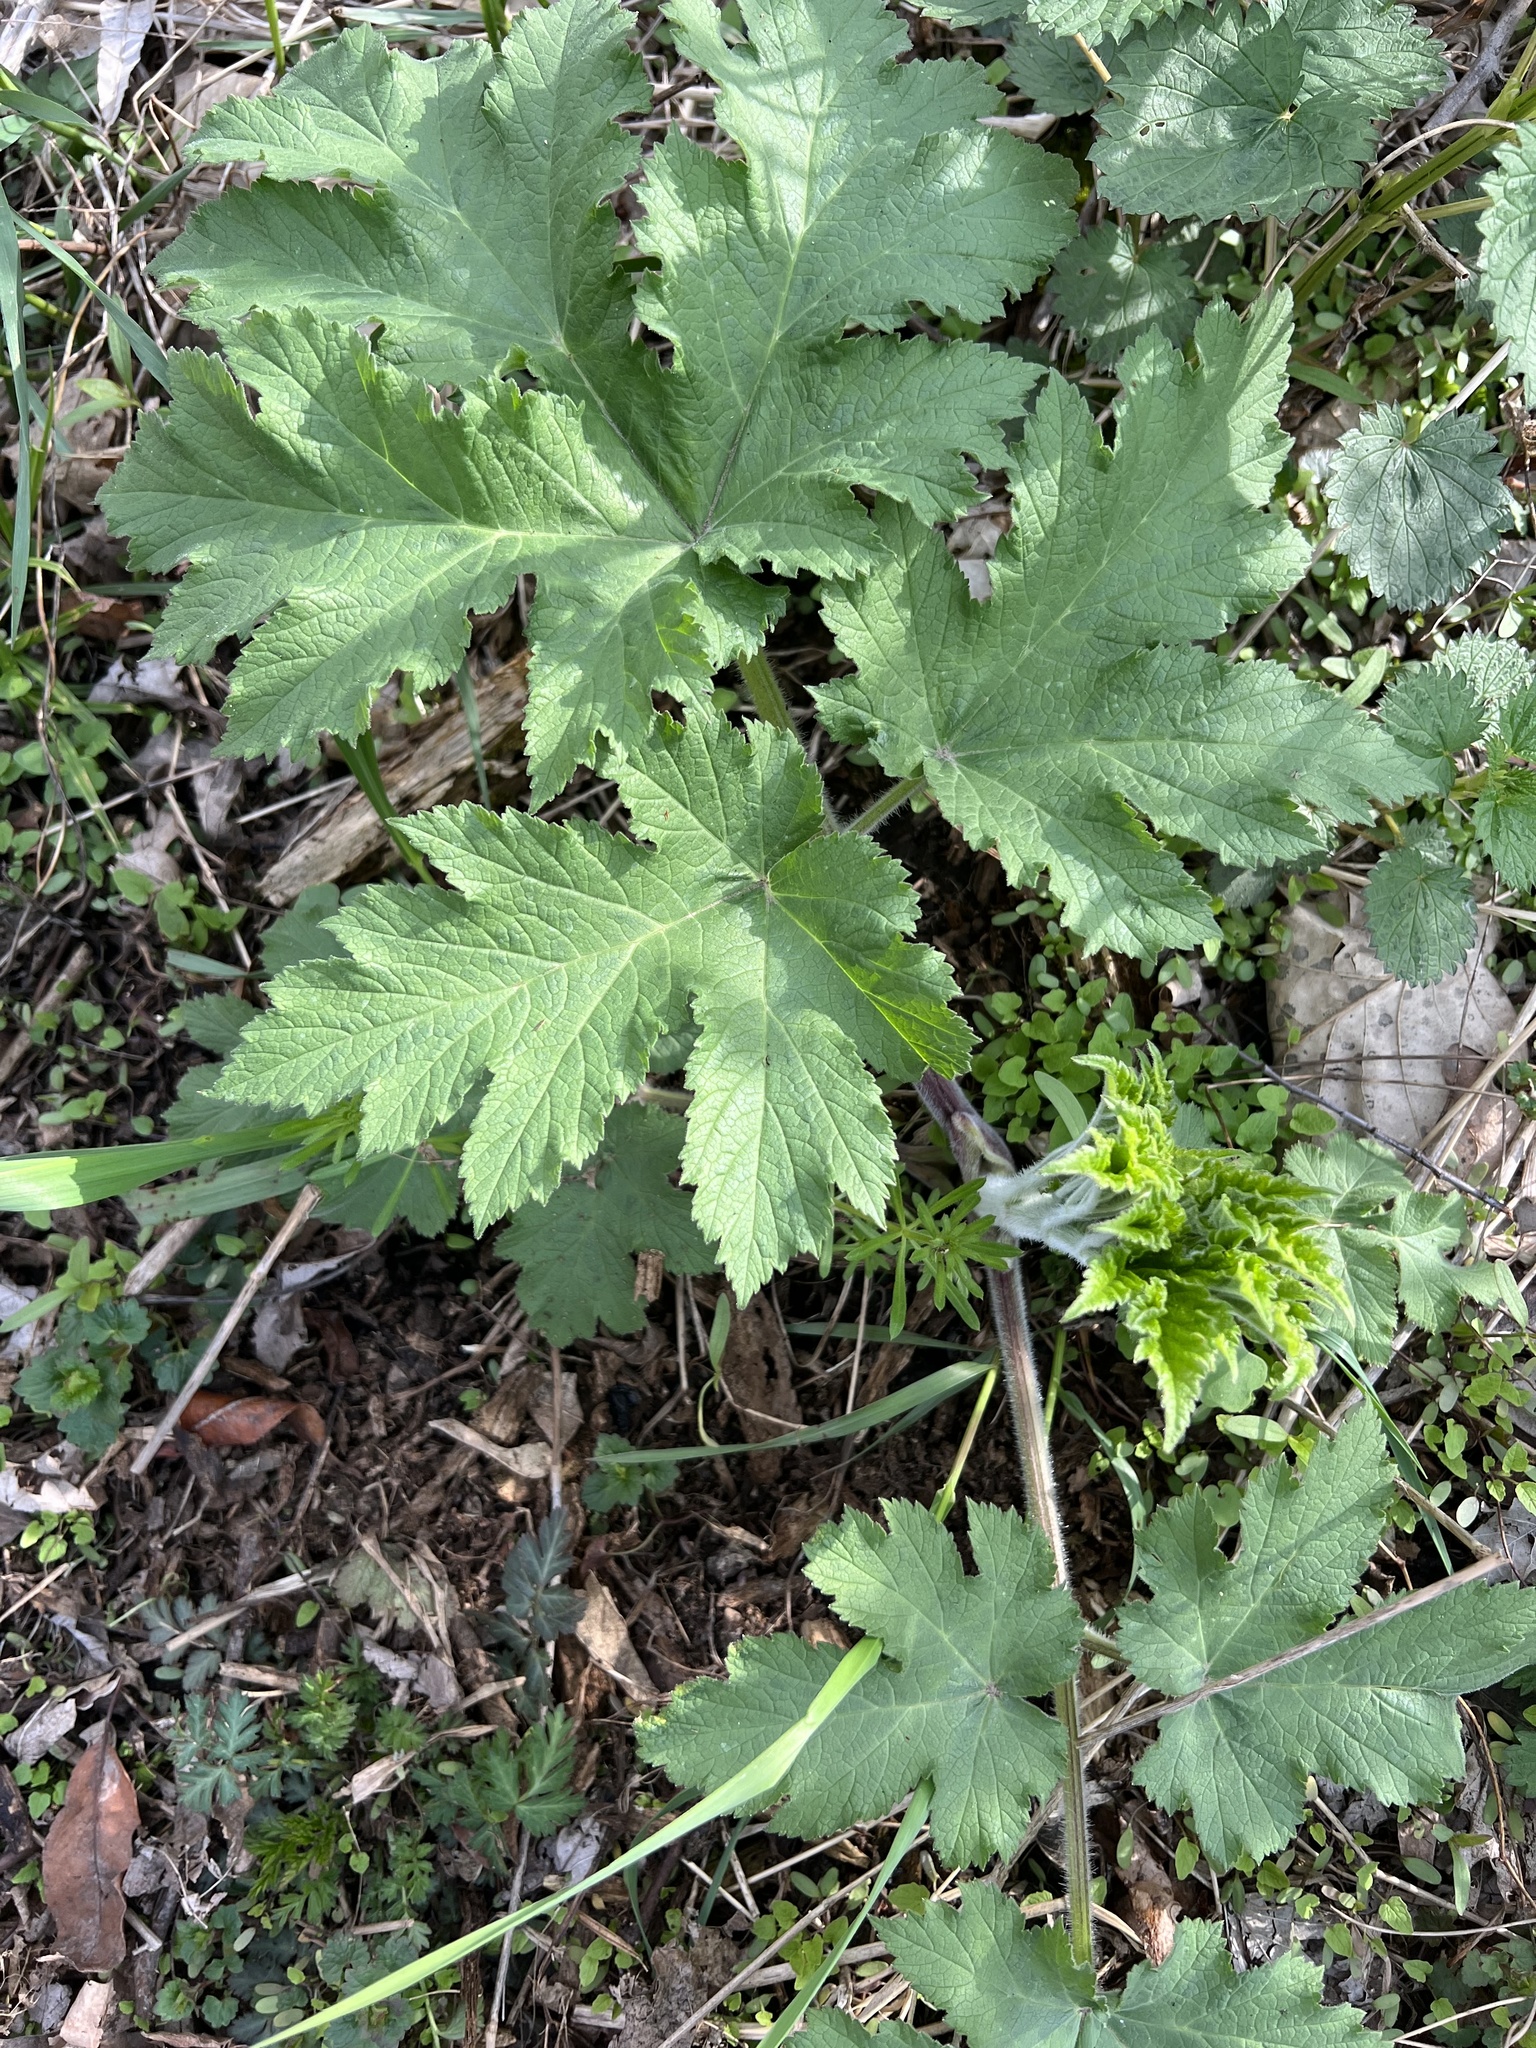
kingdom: Plantae
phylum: Tracheophyta
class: Magnoliopsida
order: Apiales
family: Apiaceae
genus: Heracleum
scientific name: Heracleum maximum
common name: American cow parsnip
